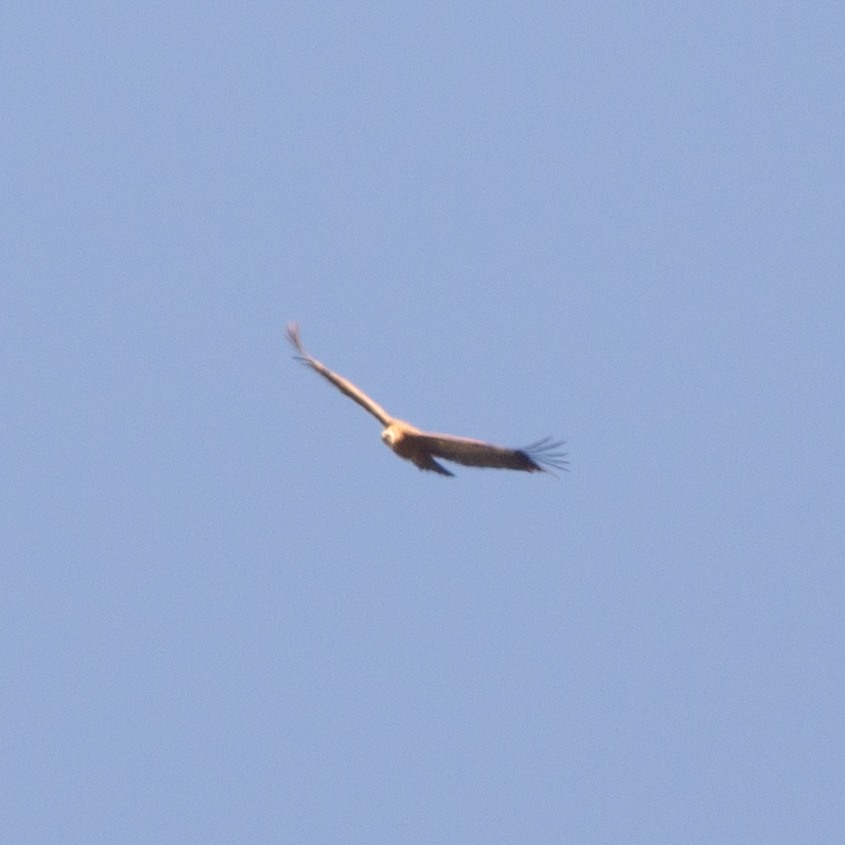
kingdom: Animalia
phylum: Chordata
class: Aves
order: Accipitriformes
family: Accipitridae
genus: Gyps
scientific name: Gyps fulvus
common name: Griffon vulture
